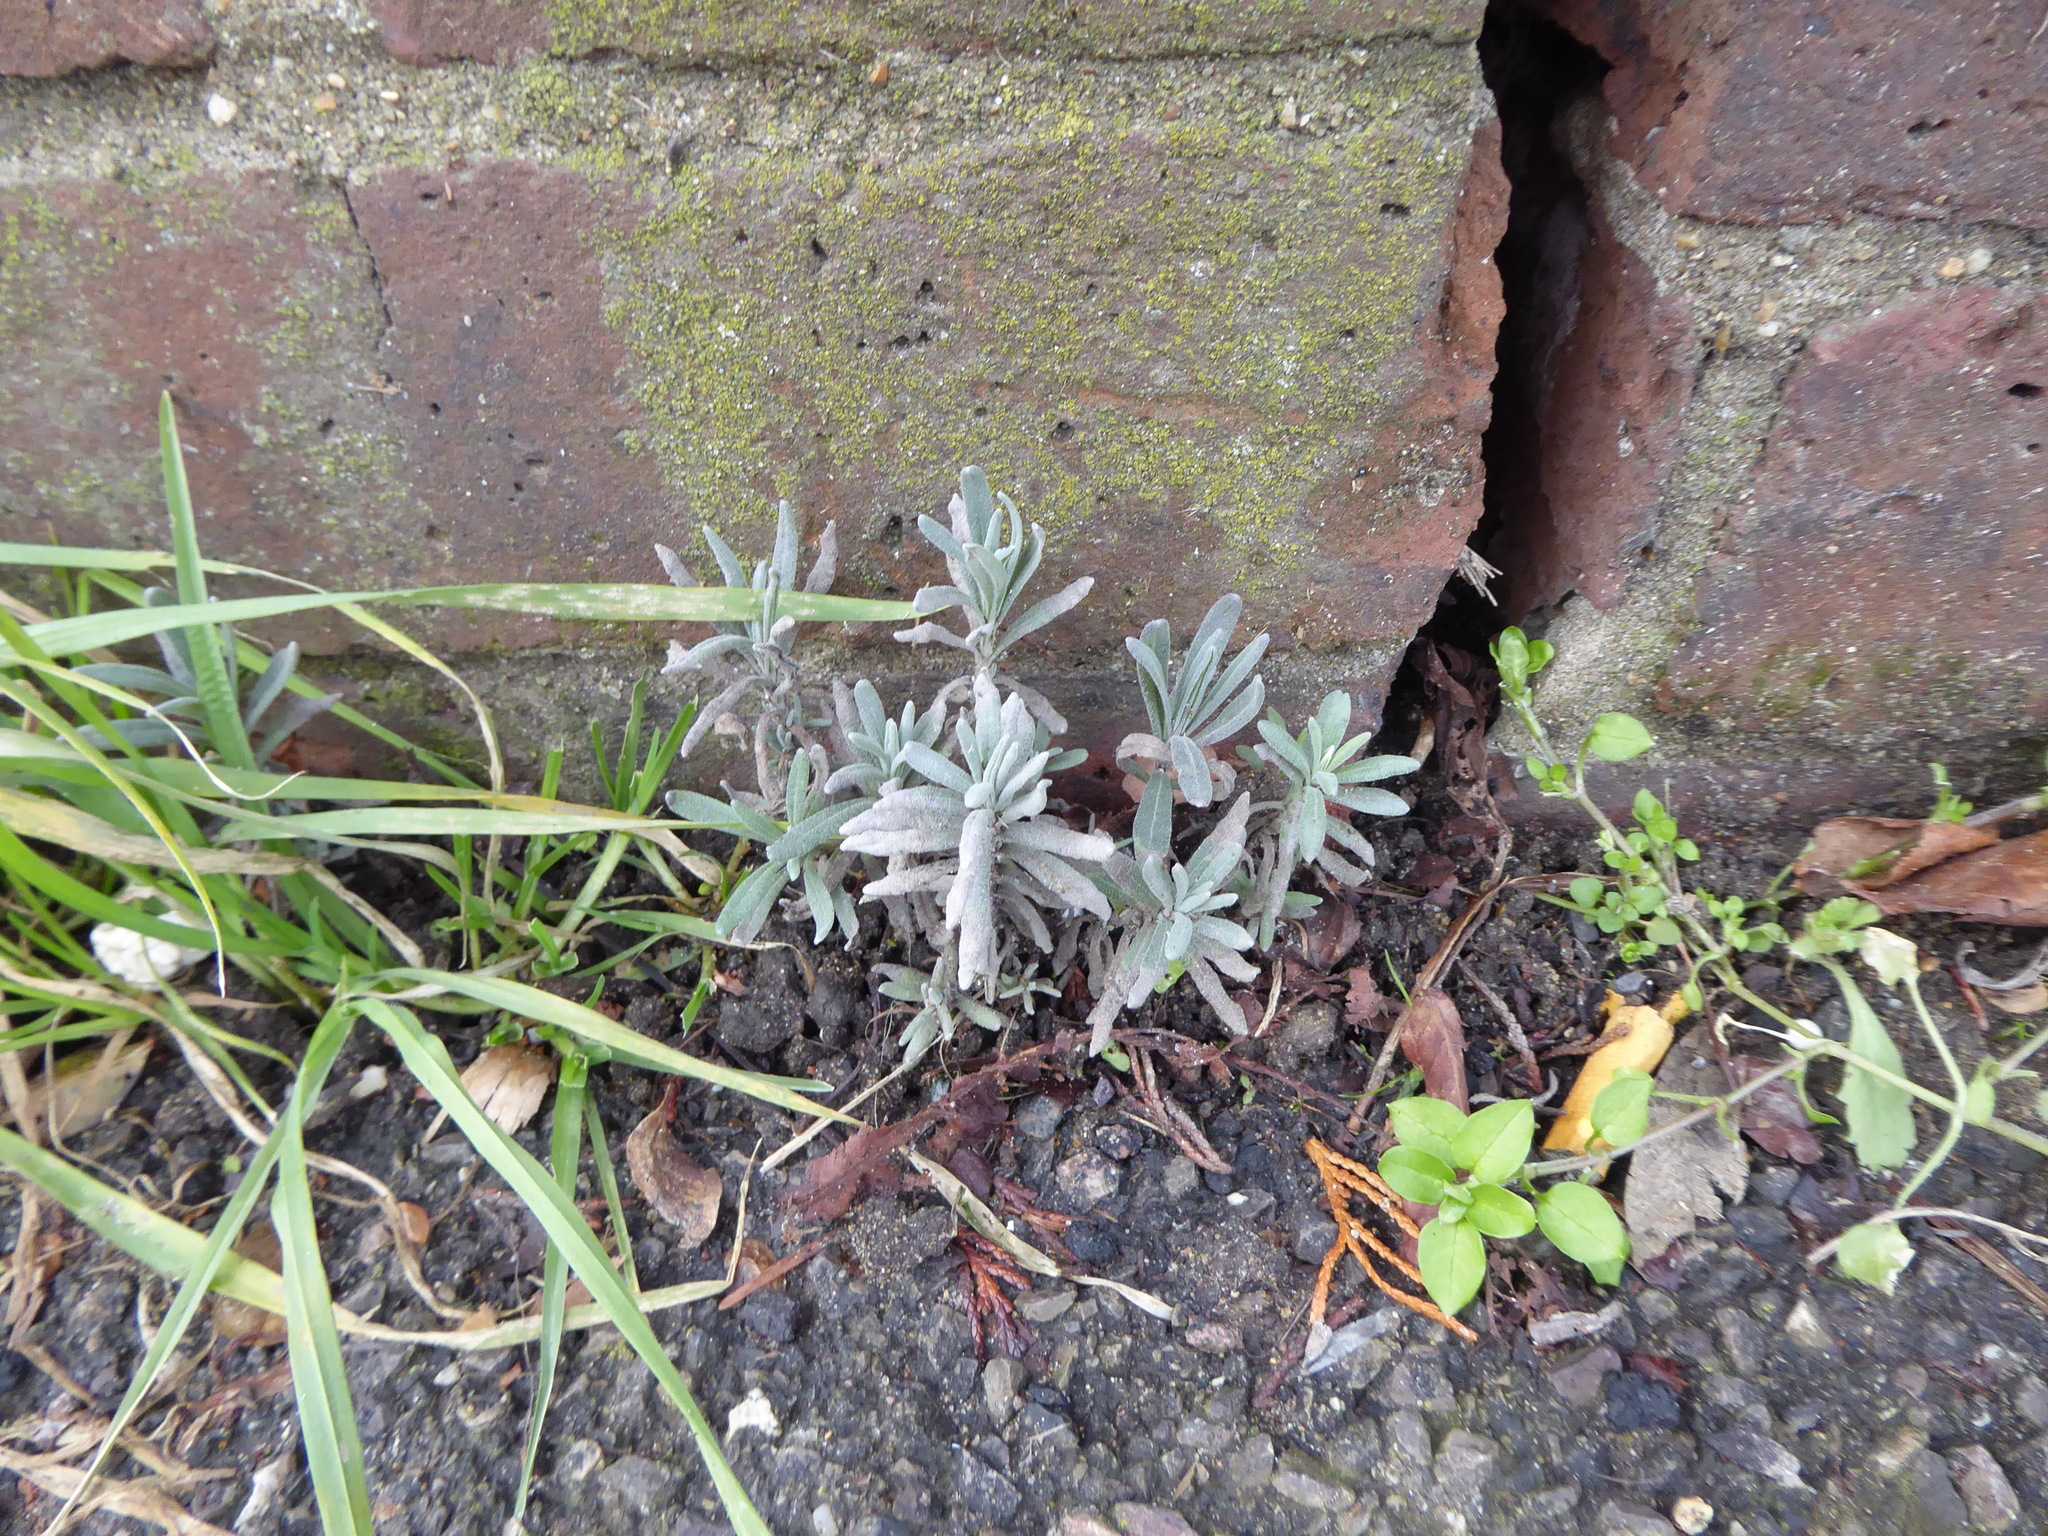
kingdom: Plantae
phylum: Tracheophyta
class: Magnoliopsida
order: Lamiales
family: Lamiaceae
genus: Lavandula
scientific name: Lavandula angustifolia
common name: Garden lavender
